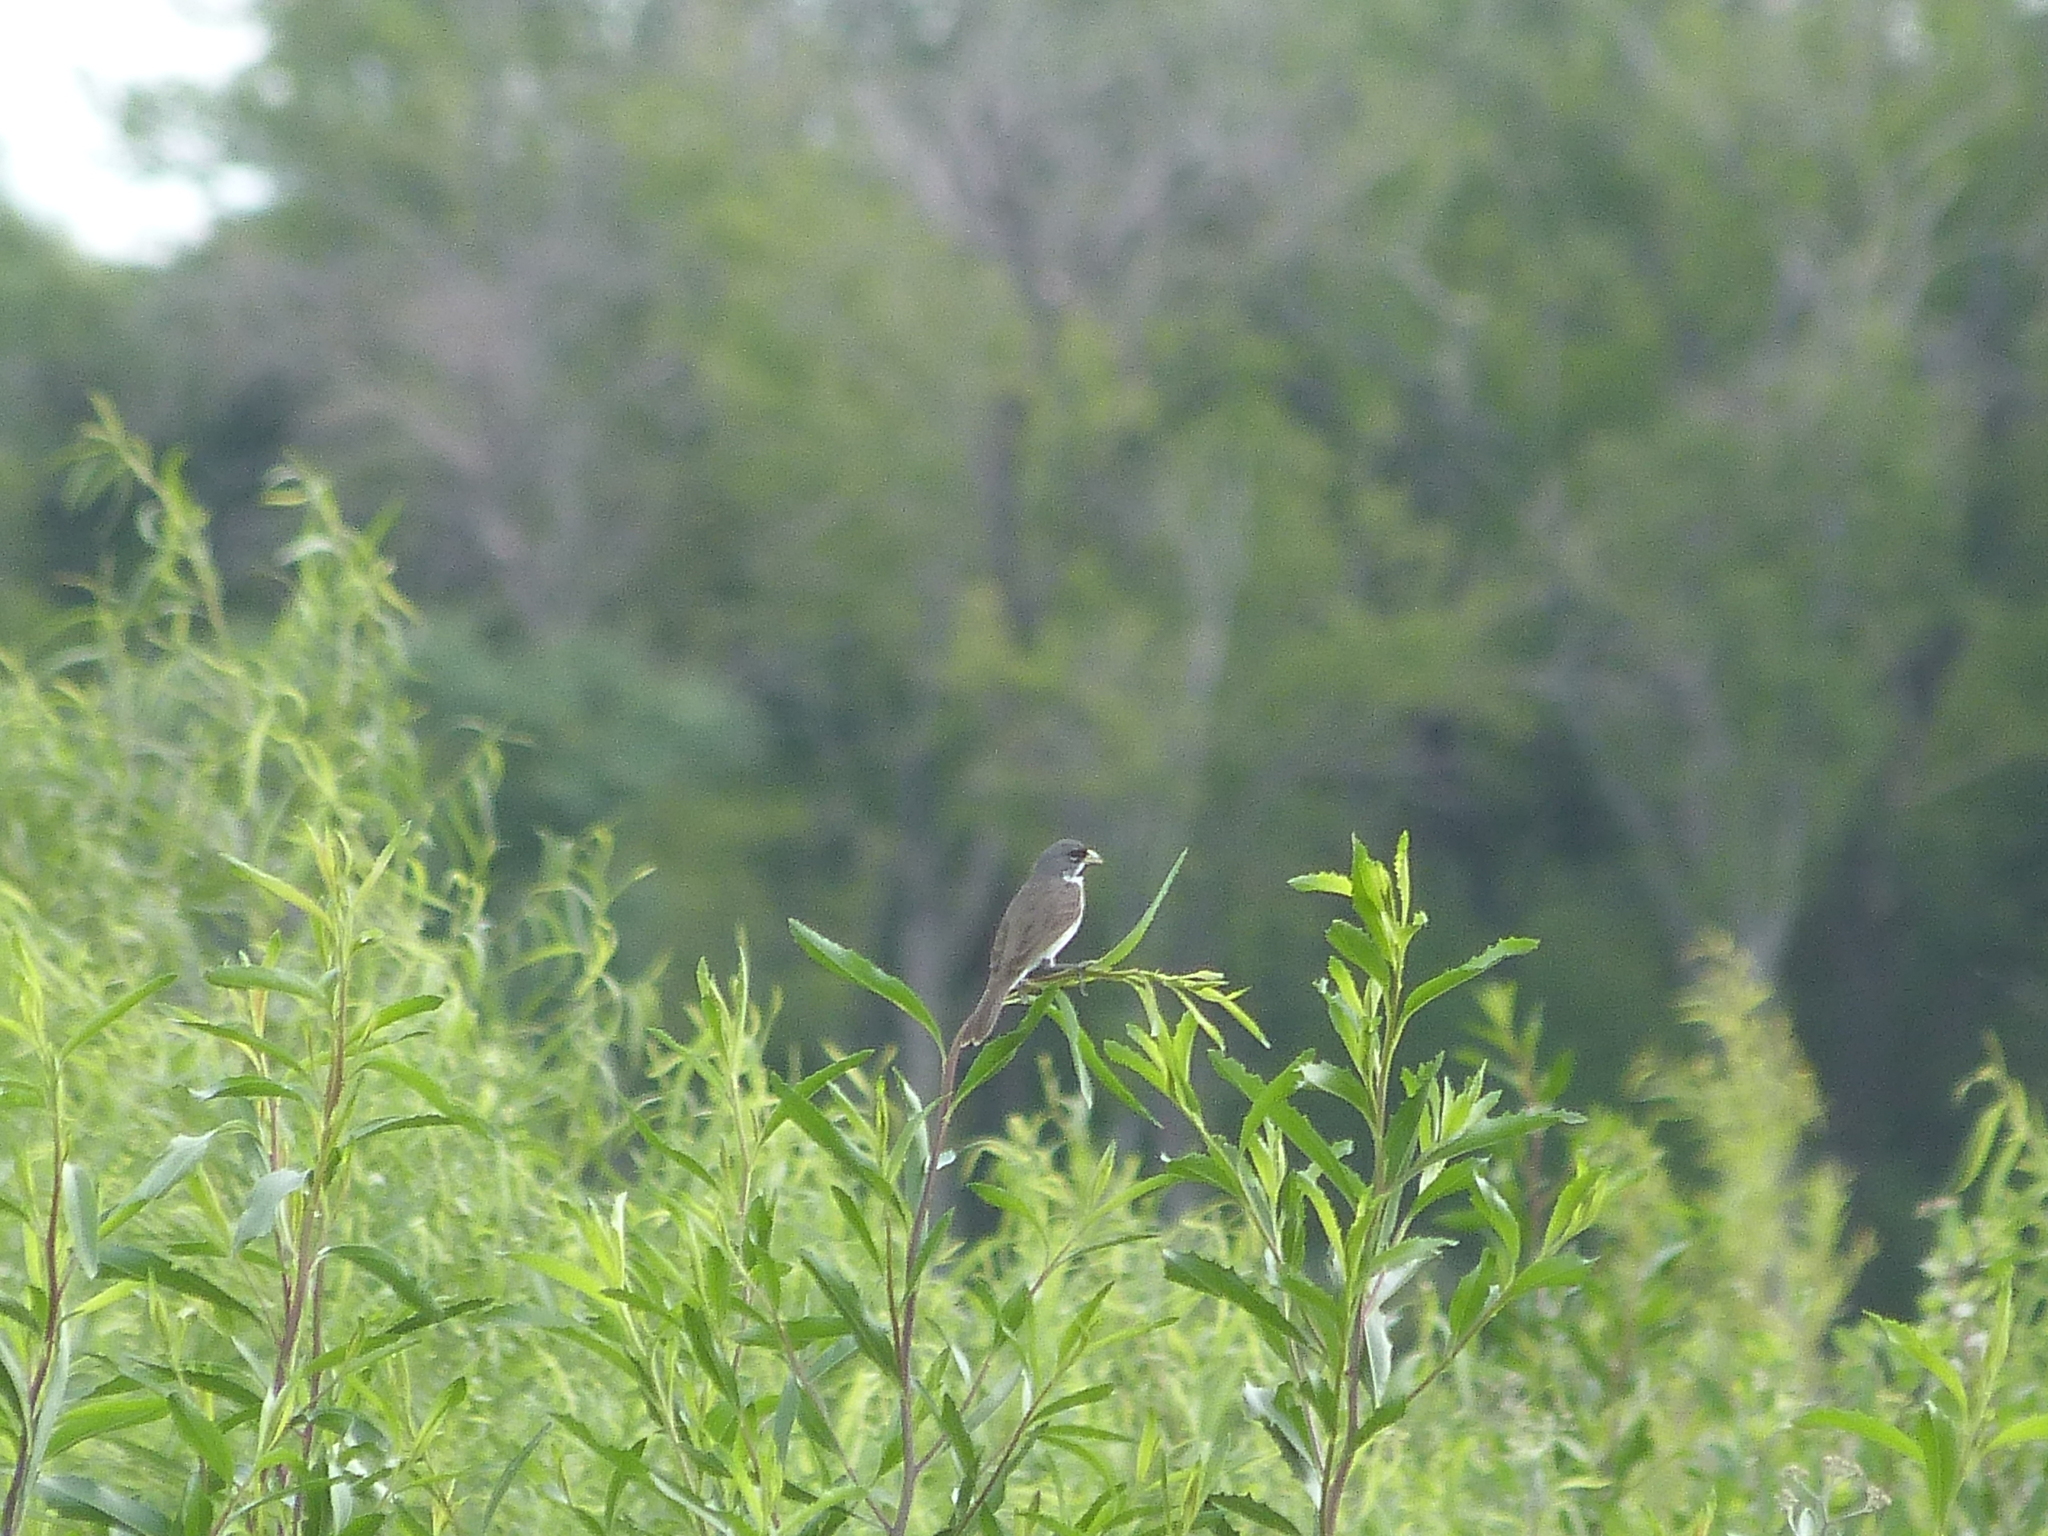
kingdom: Animalia
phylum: Chordata
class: Aves
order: Passeriformes
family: Thraupidae
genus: Sporophila
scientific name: Sporophila caerulescens
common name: Double-collared seedeater
